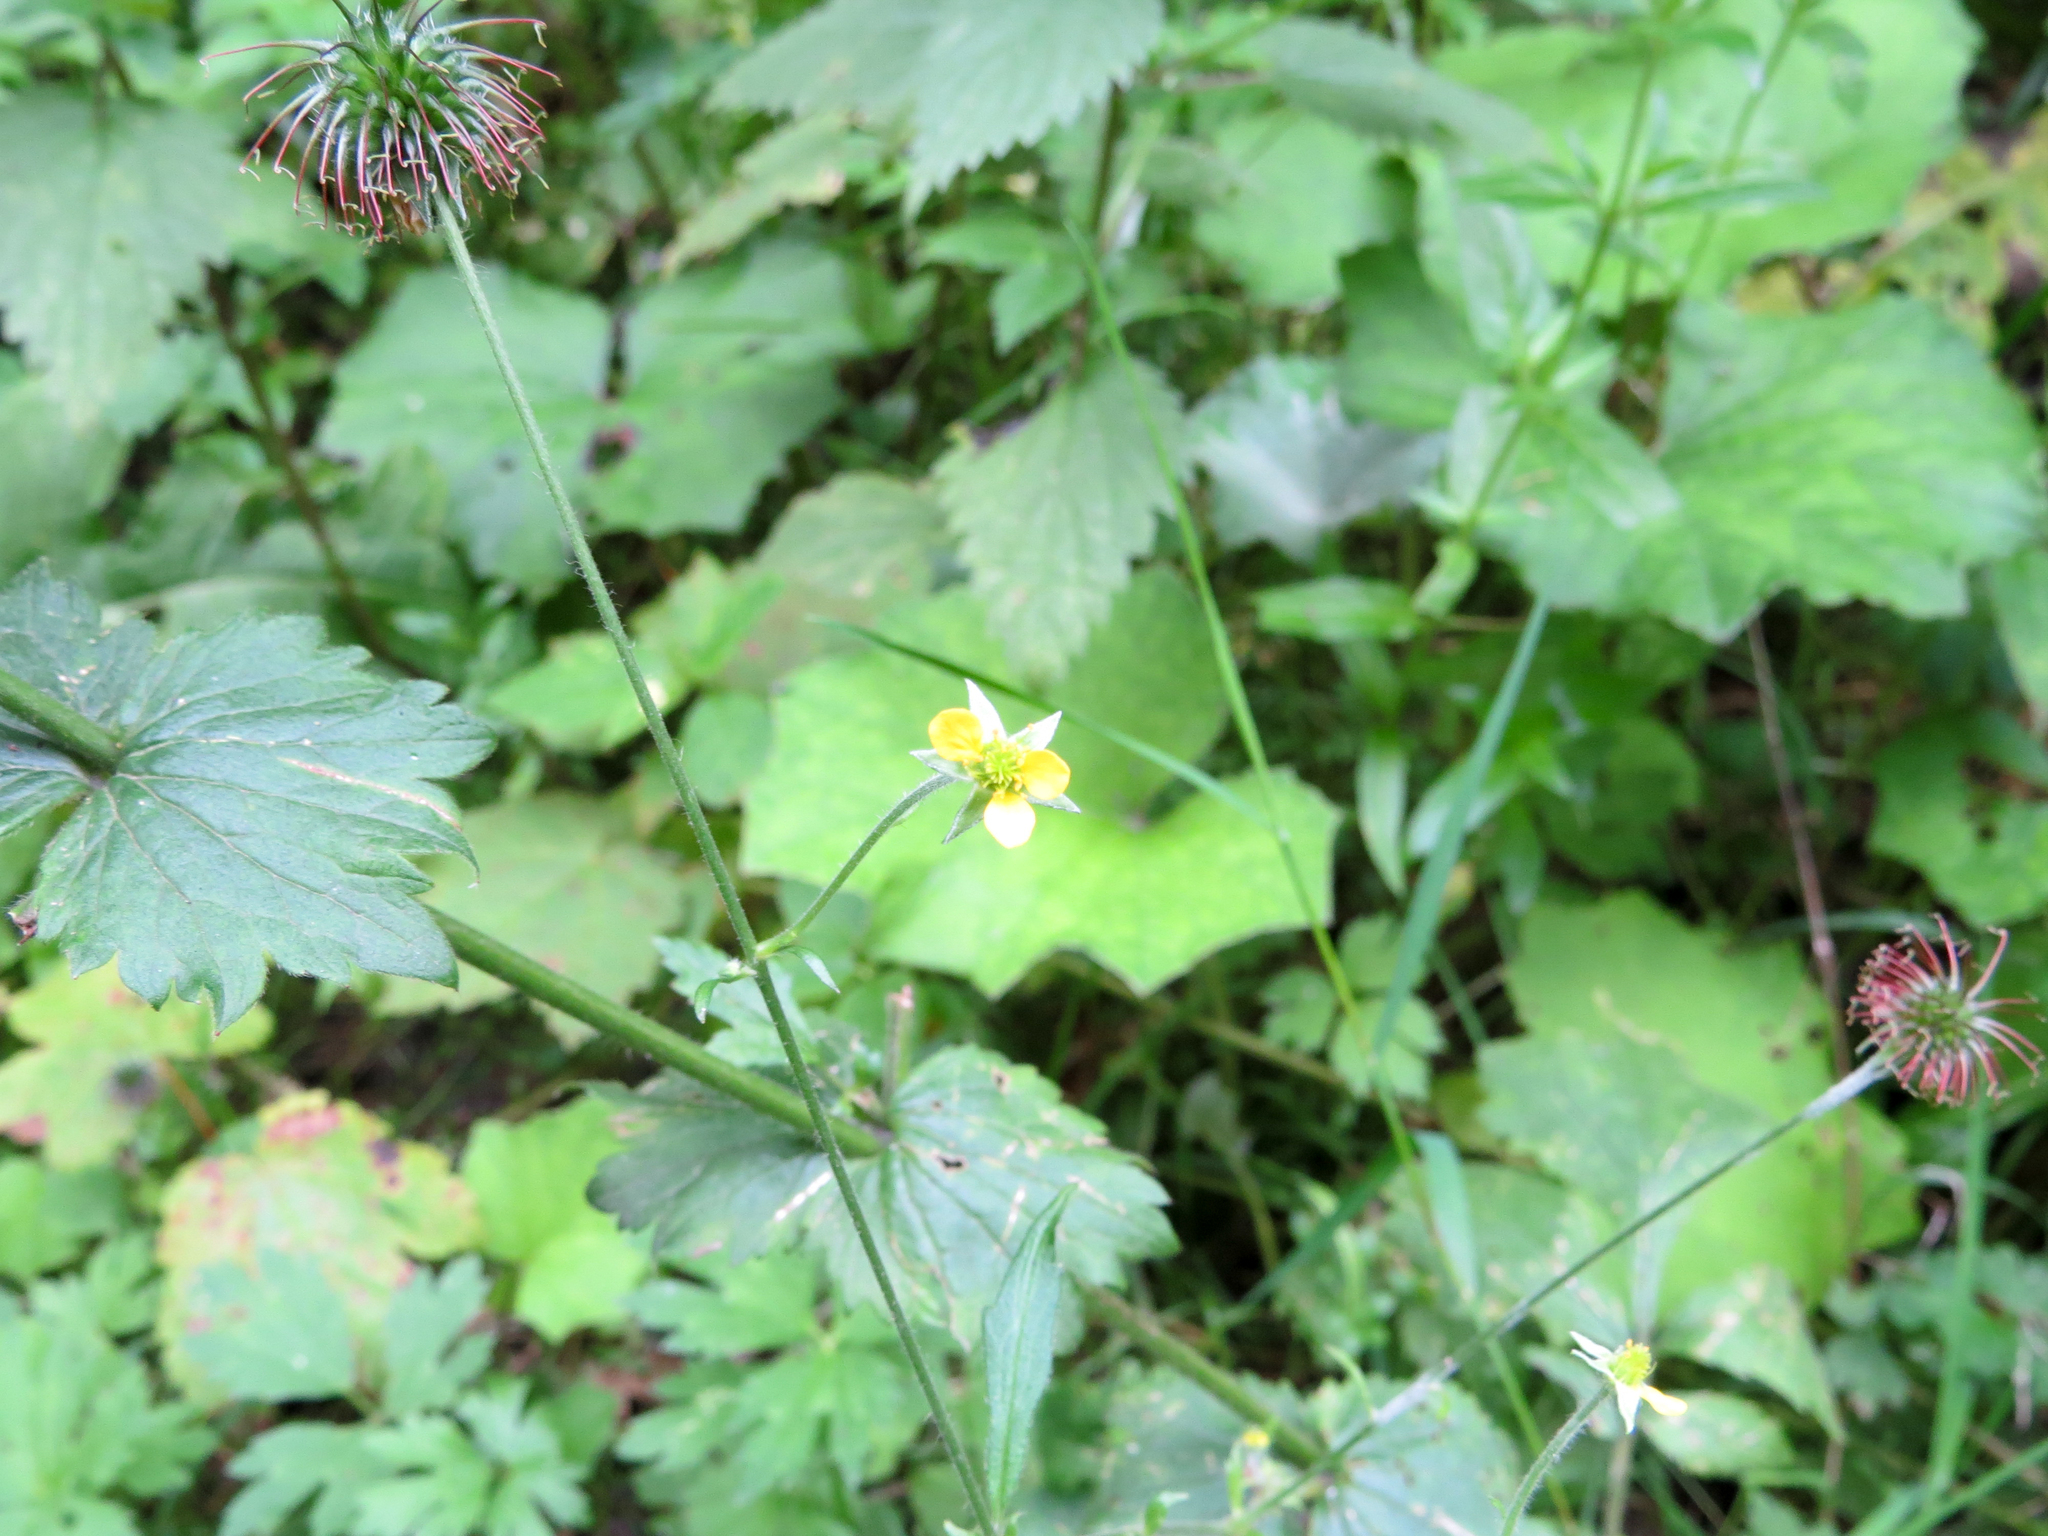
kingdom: Plantae
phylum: Tracheophyta
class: Magnoliopsida
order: Rosales
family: Rosaceae
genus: Geum
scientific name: Geum urbanum
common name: Wood avens
